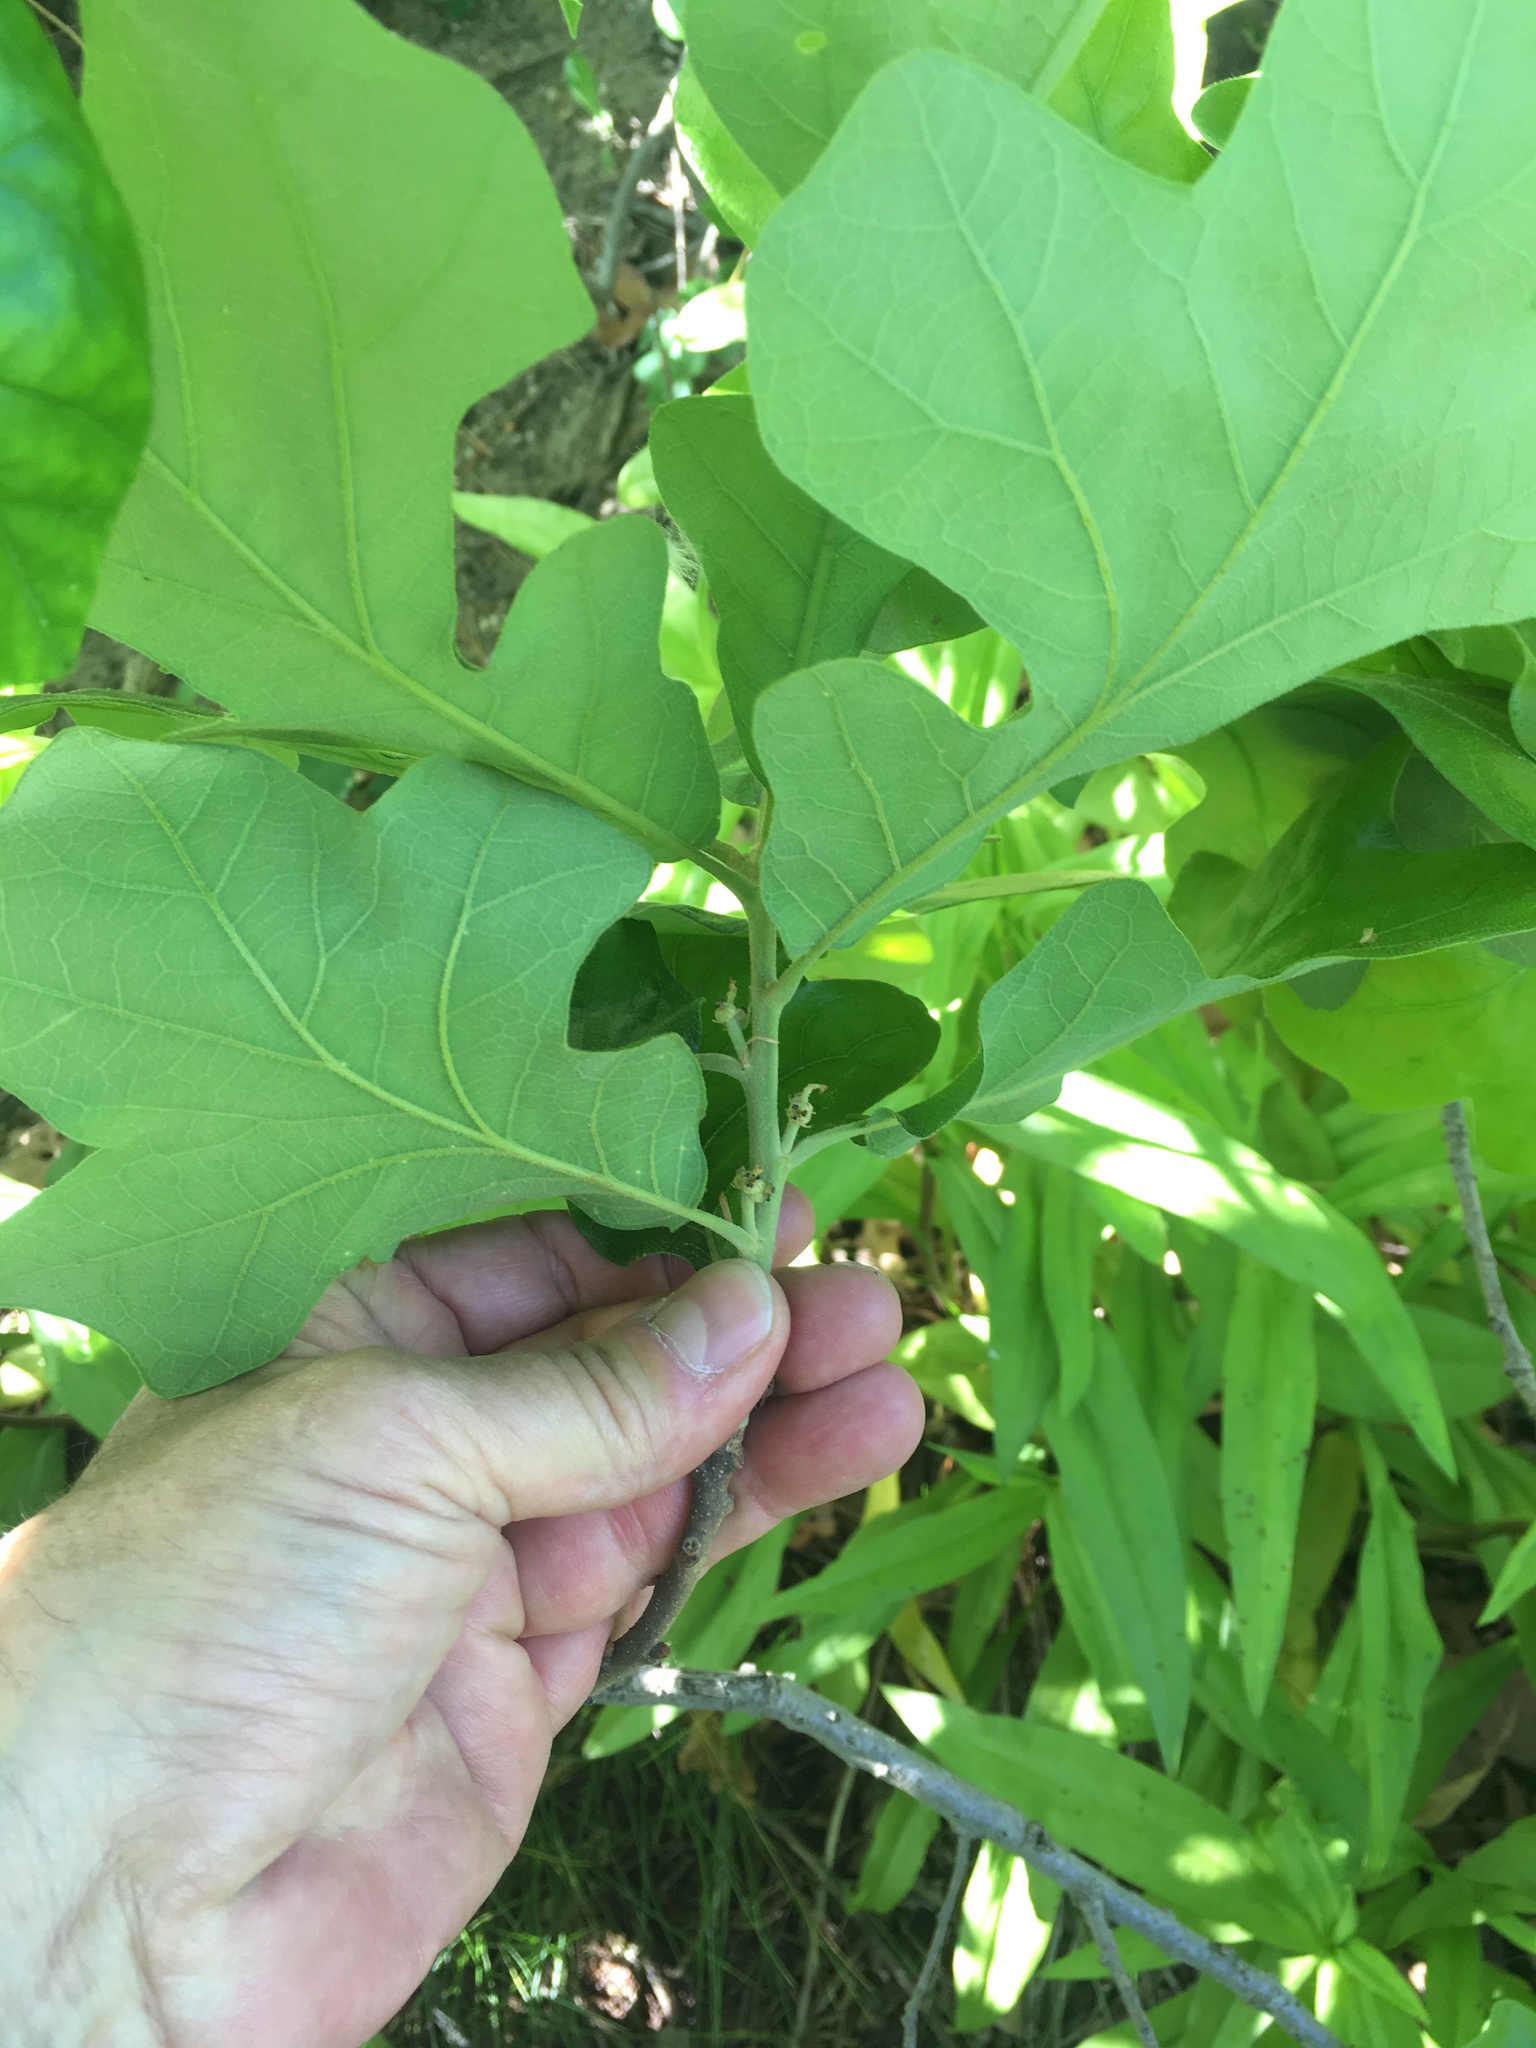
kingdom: Plantae
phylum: Tracheophyta
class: Magnoliopsida
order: Fagales
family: Fagaceae
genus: Quercus
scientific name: Quercus stellata
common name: Post oak
